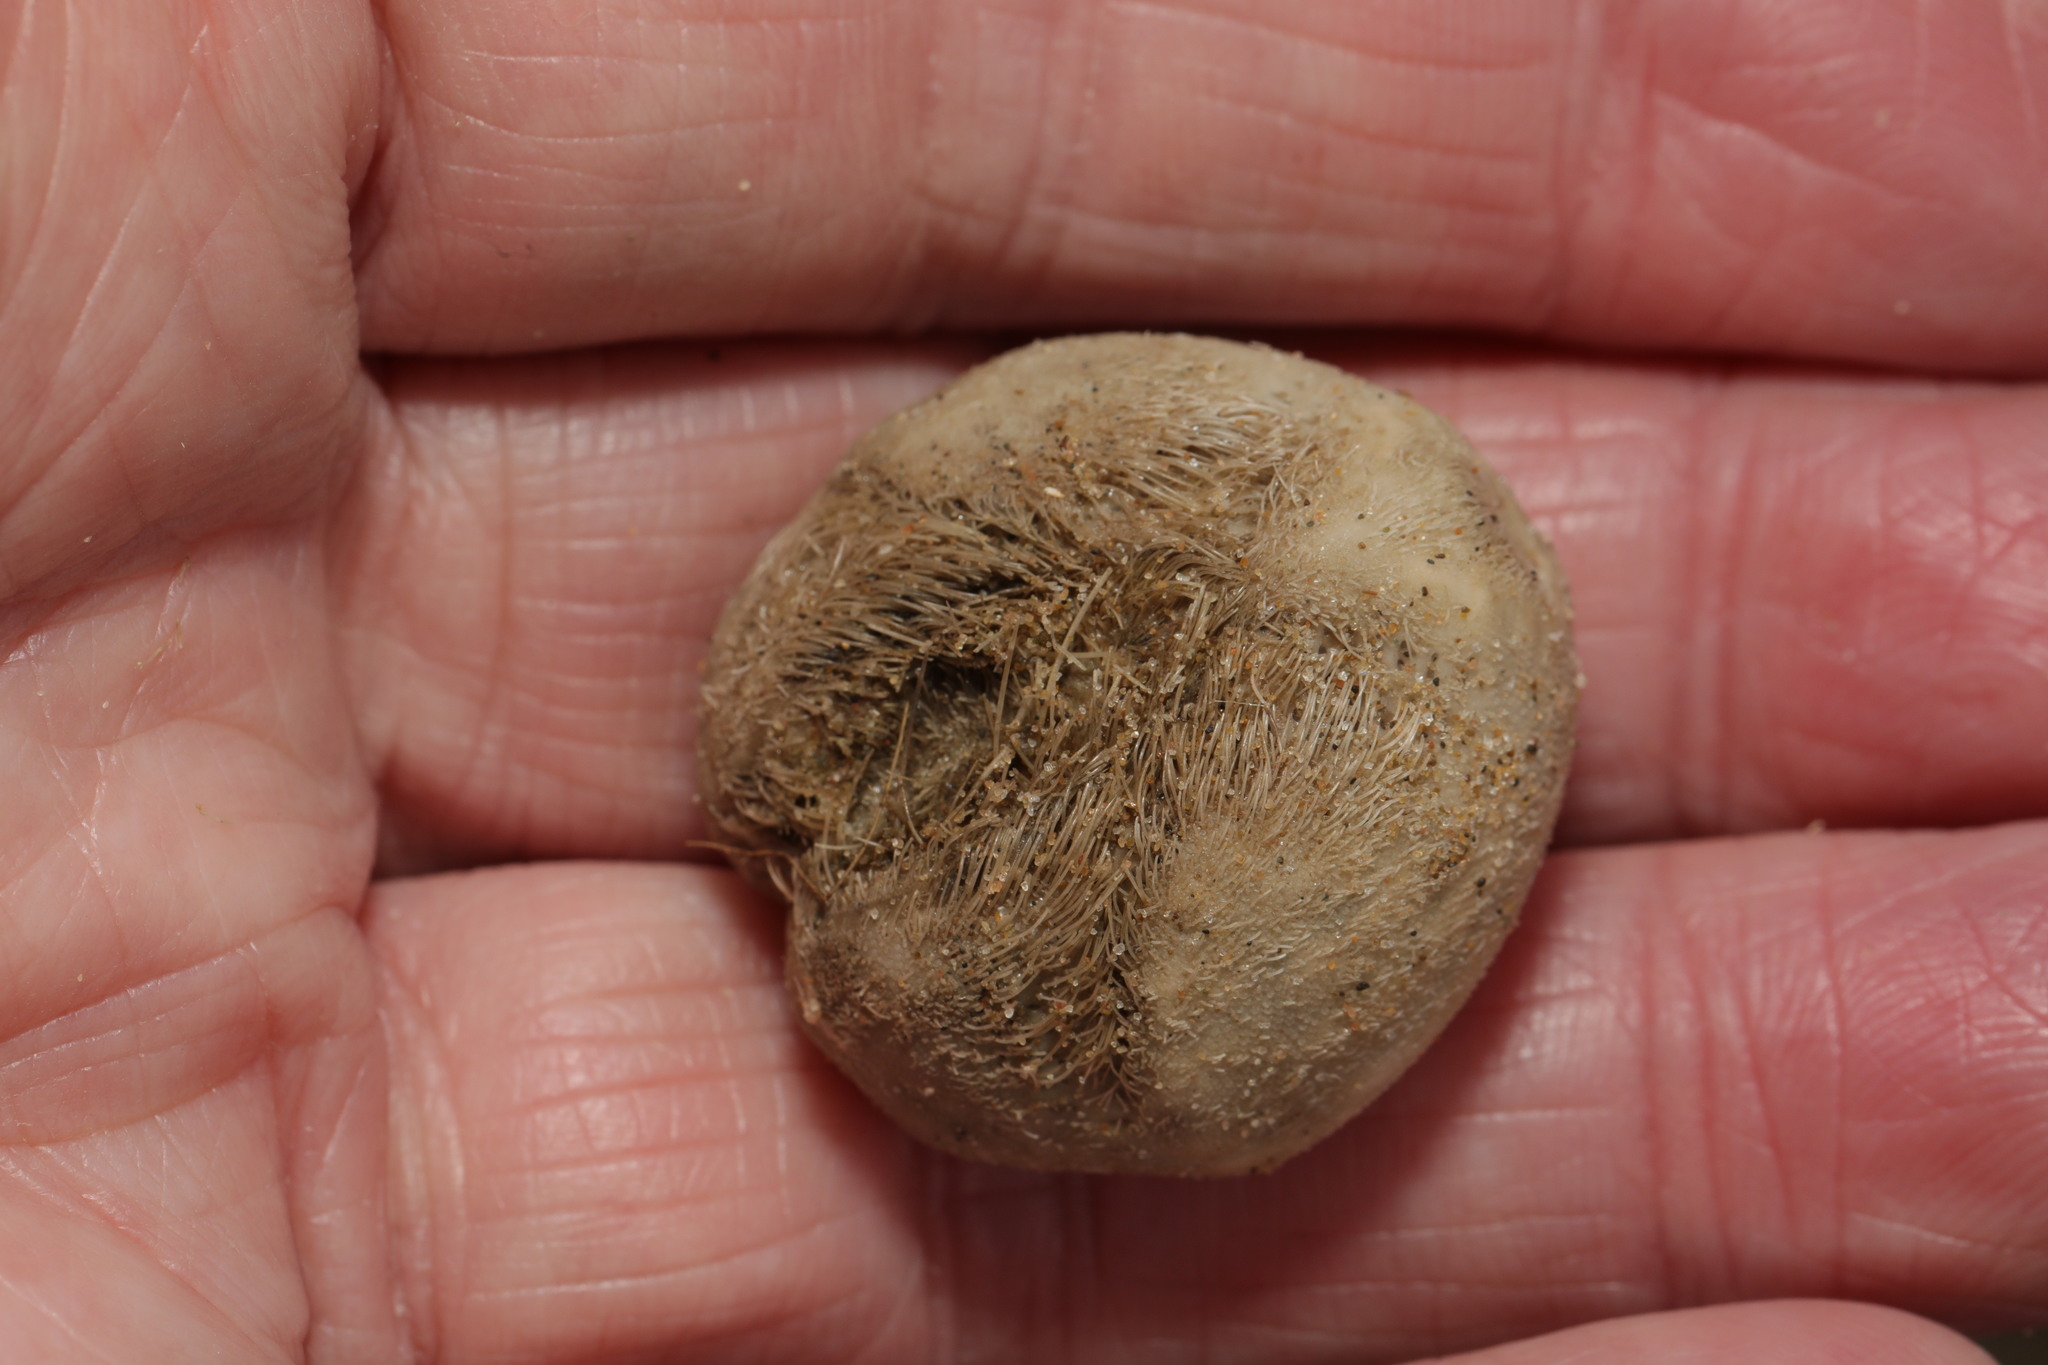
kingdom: Animalia
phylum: Echinodermata
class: Echinoidea
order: Spatangoida
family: Loveniidae
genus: Echinocardium
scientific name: Echinocardium cordatum
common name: Heart-urchin
